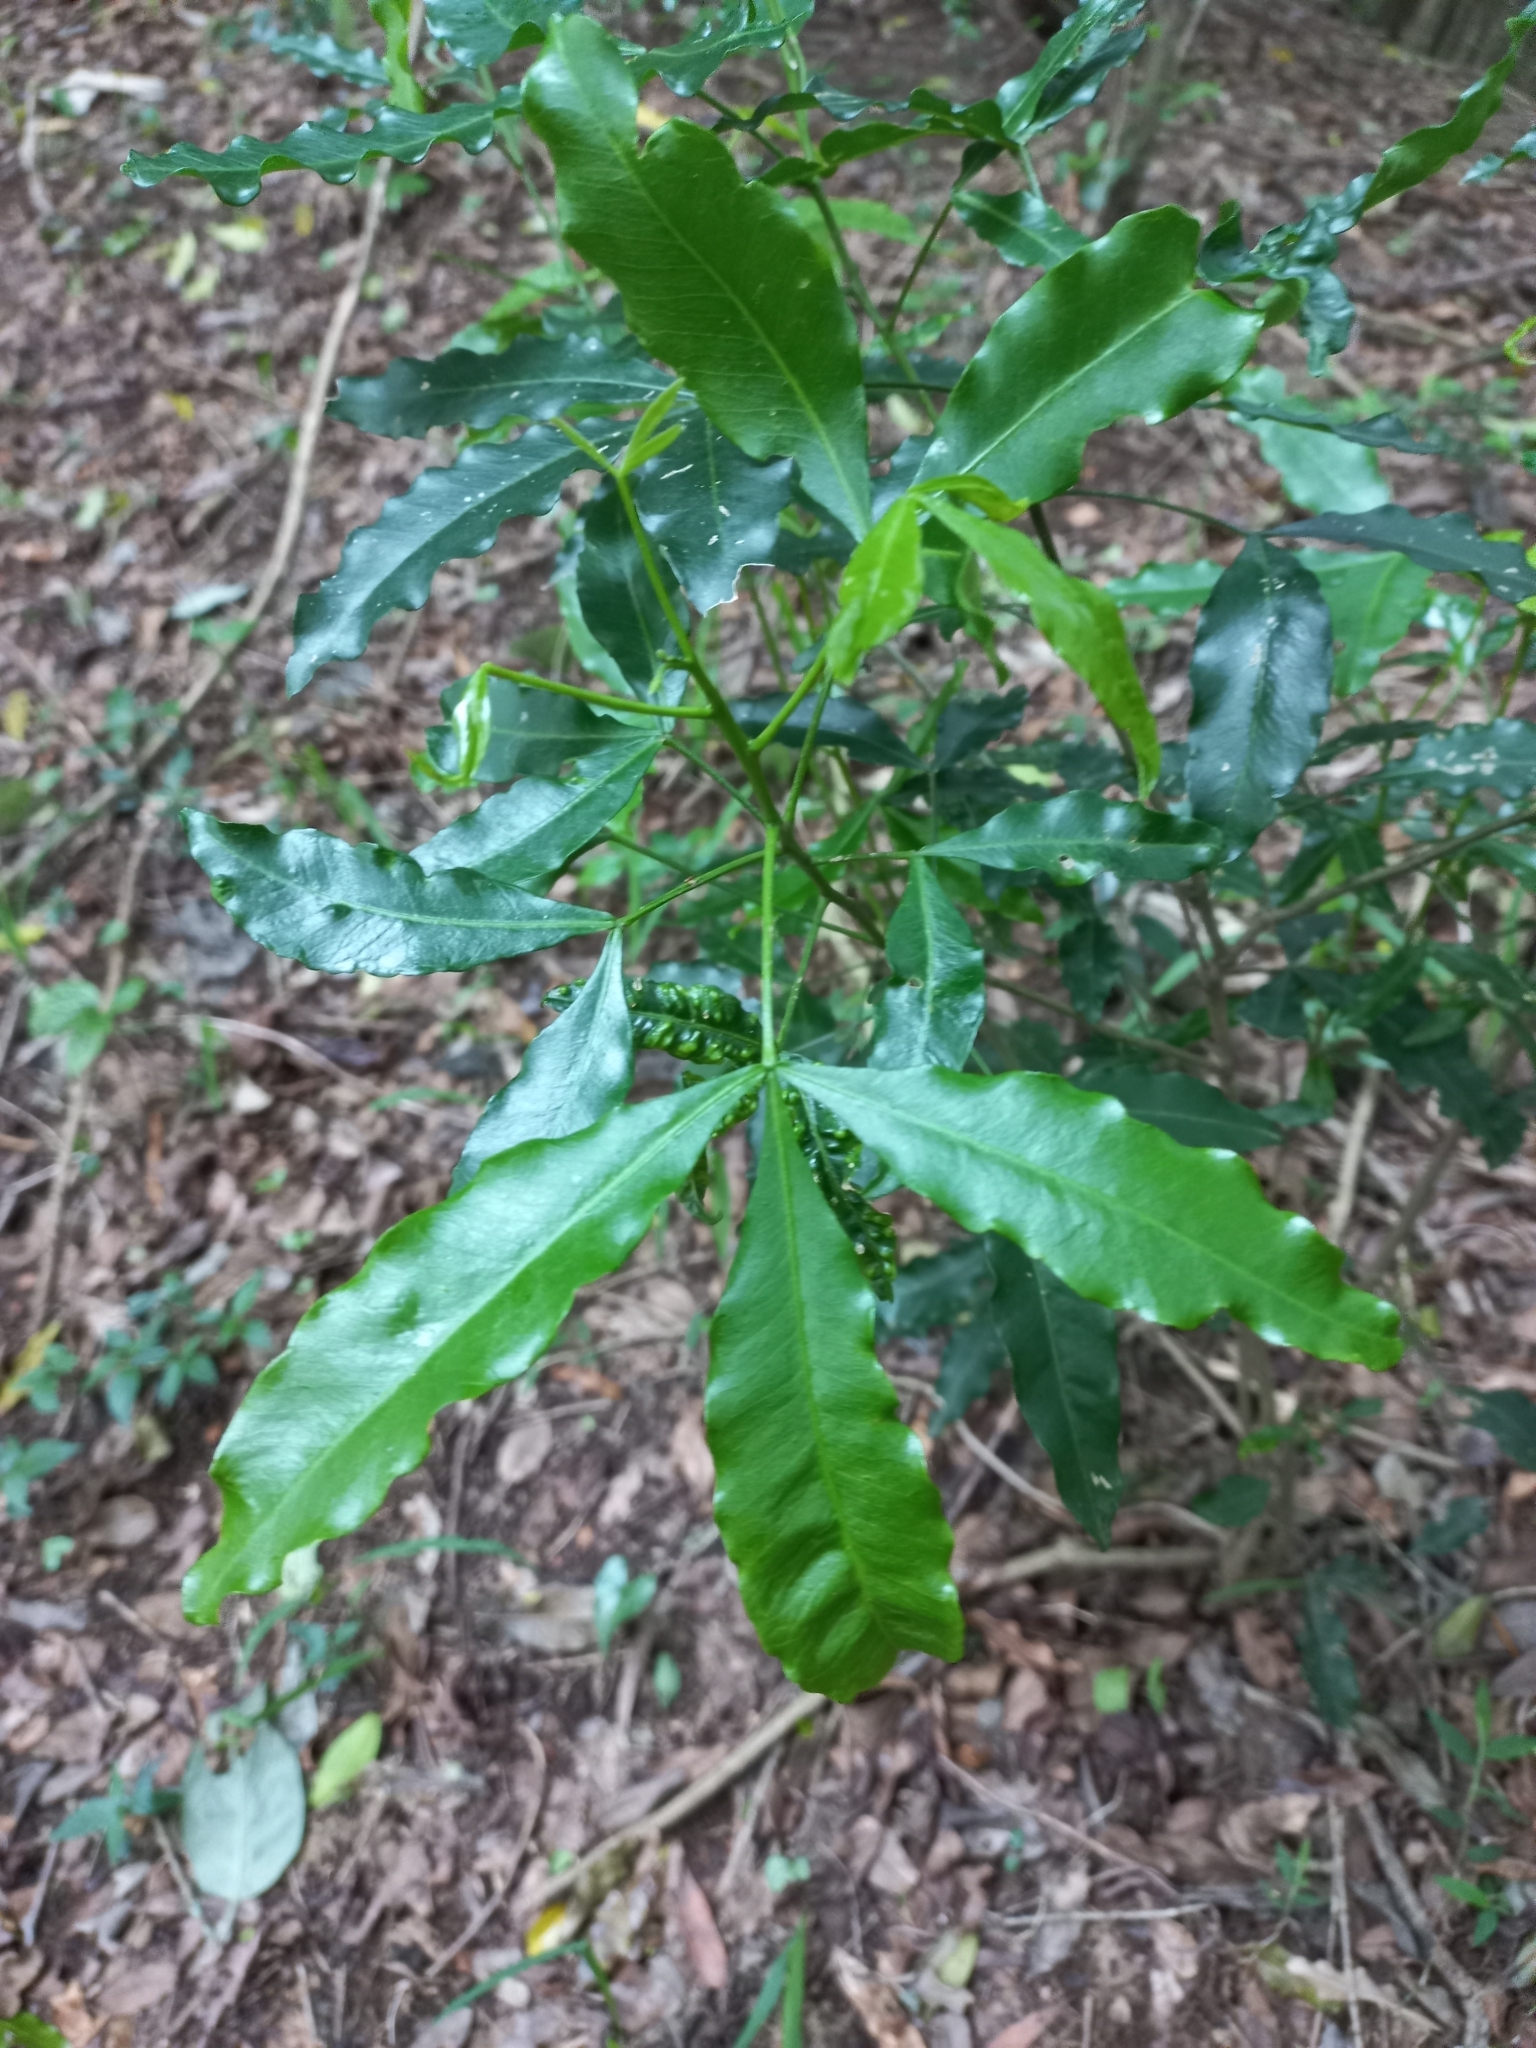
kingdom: Plantae
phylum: Tracheophyta
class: Magnoliopsida
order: Sapindales
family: Rutaceae
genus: Vepris
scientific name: Vepris lanceolata
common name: White ironwood
